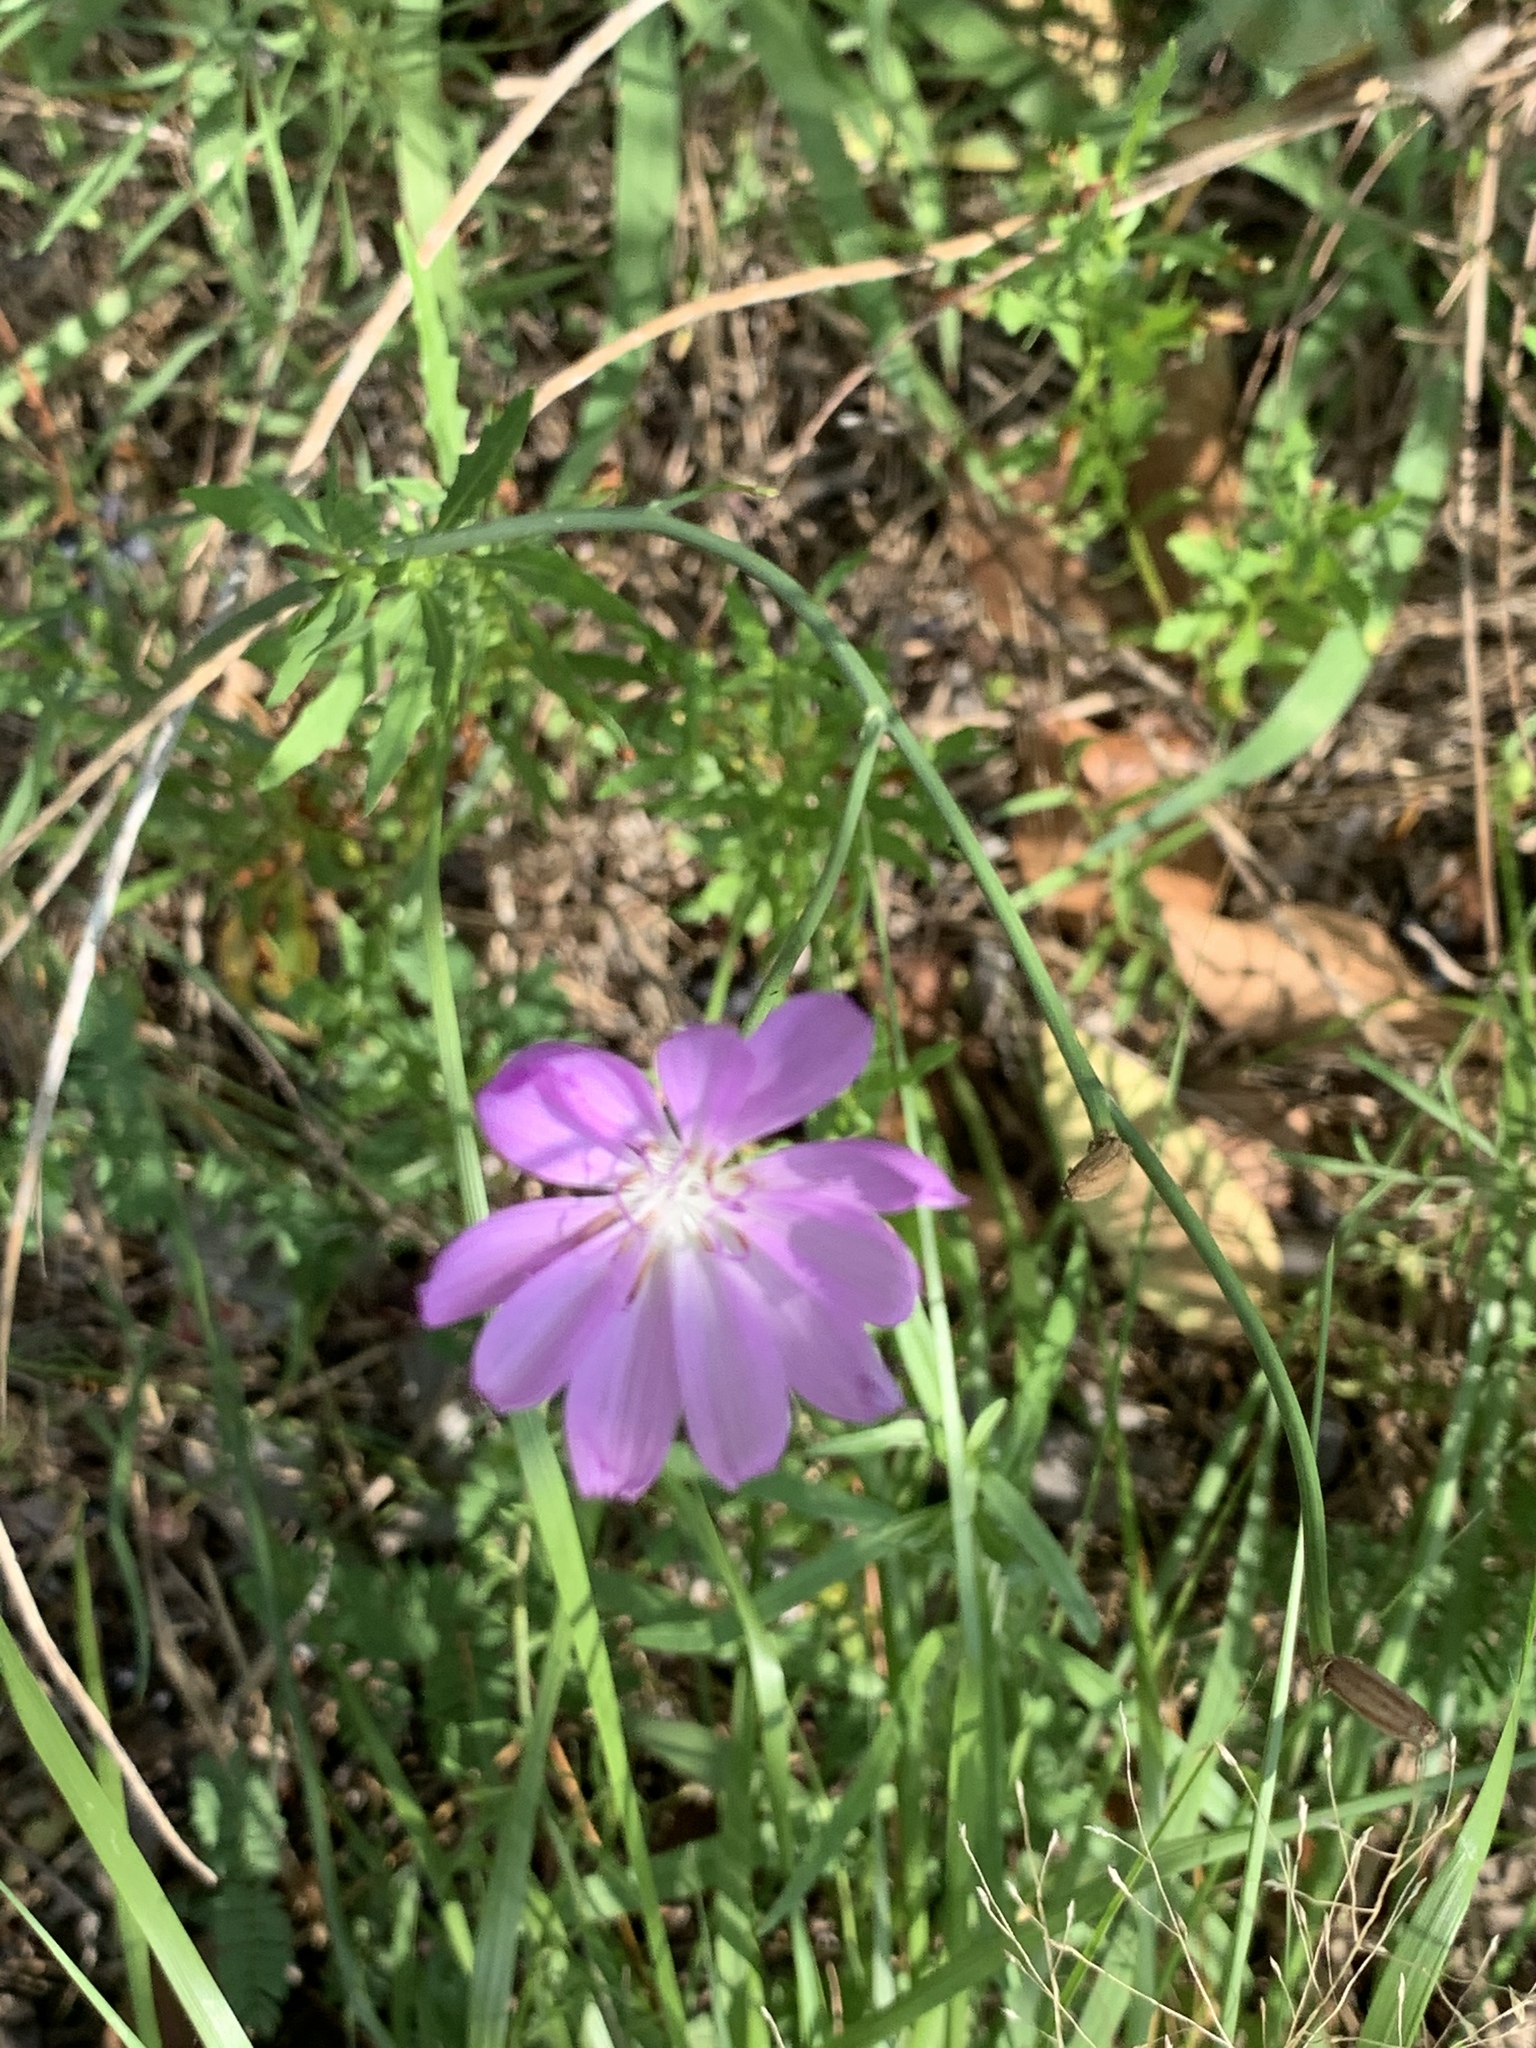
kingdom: Plantae
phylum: Tracheophyta
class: Magnoliopsida
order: Asterales
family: Asteraceae
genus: Lygodesmia
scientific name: Lygodesmia texana
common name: Texas skeleton-plant
